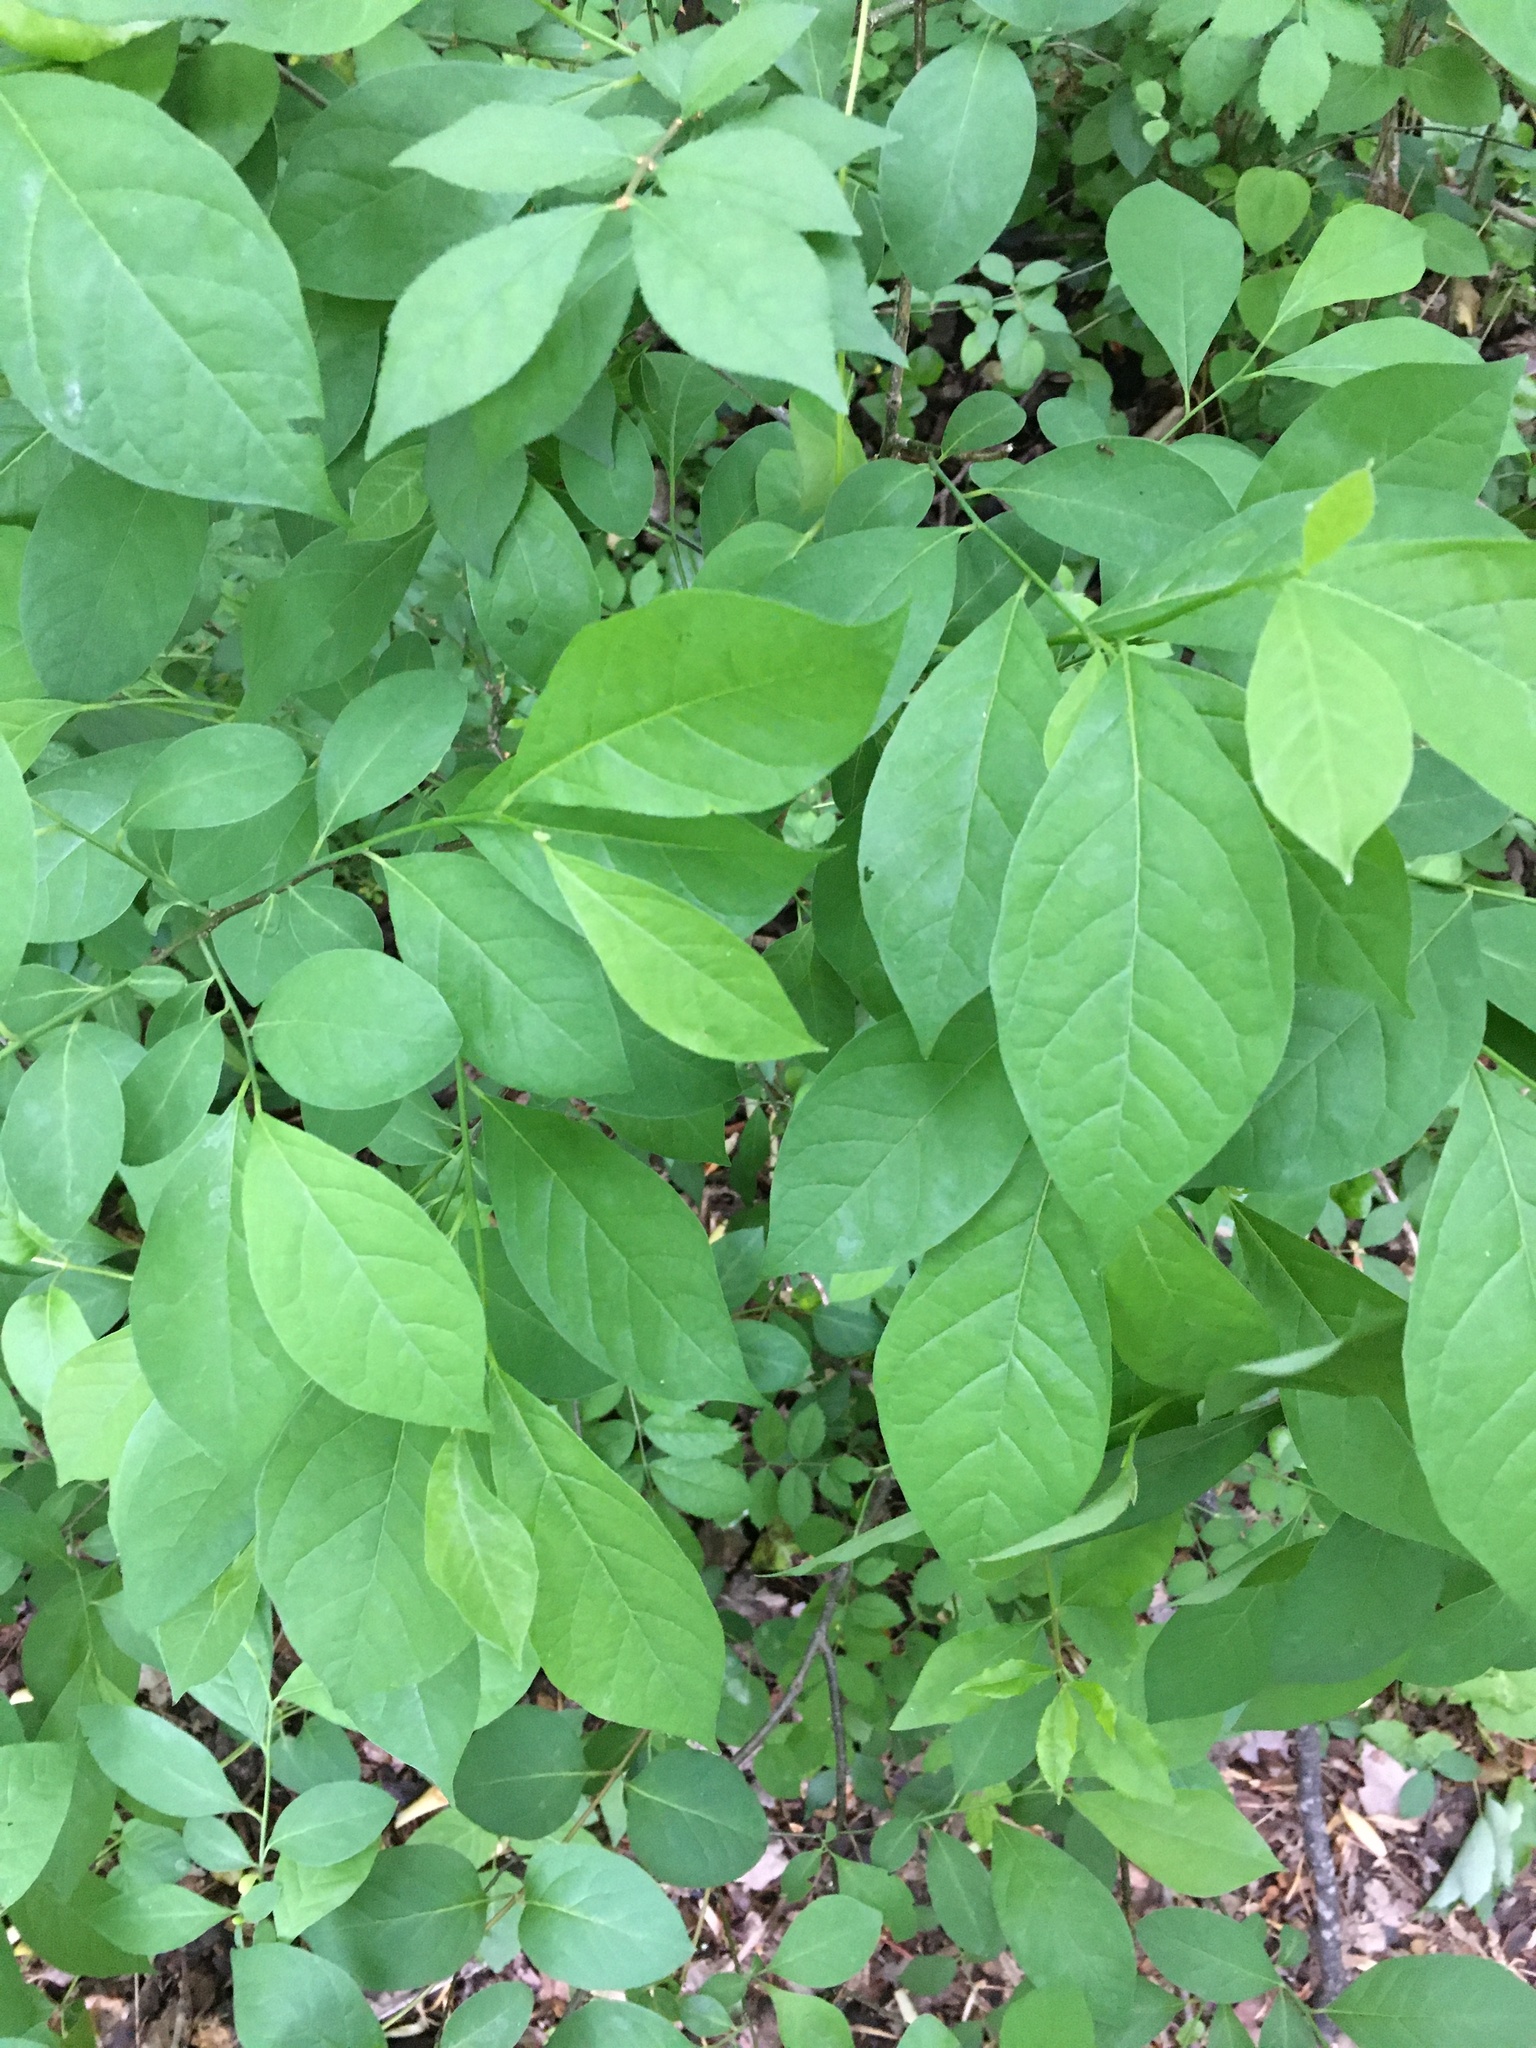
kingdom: Plantae
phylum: Tracheophyta
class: Magnoliopsida
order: Laurales
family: Lauraceae
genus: Lindera
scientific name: Lindera benzoin
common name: Spicebush
